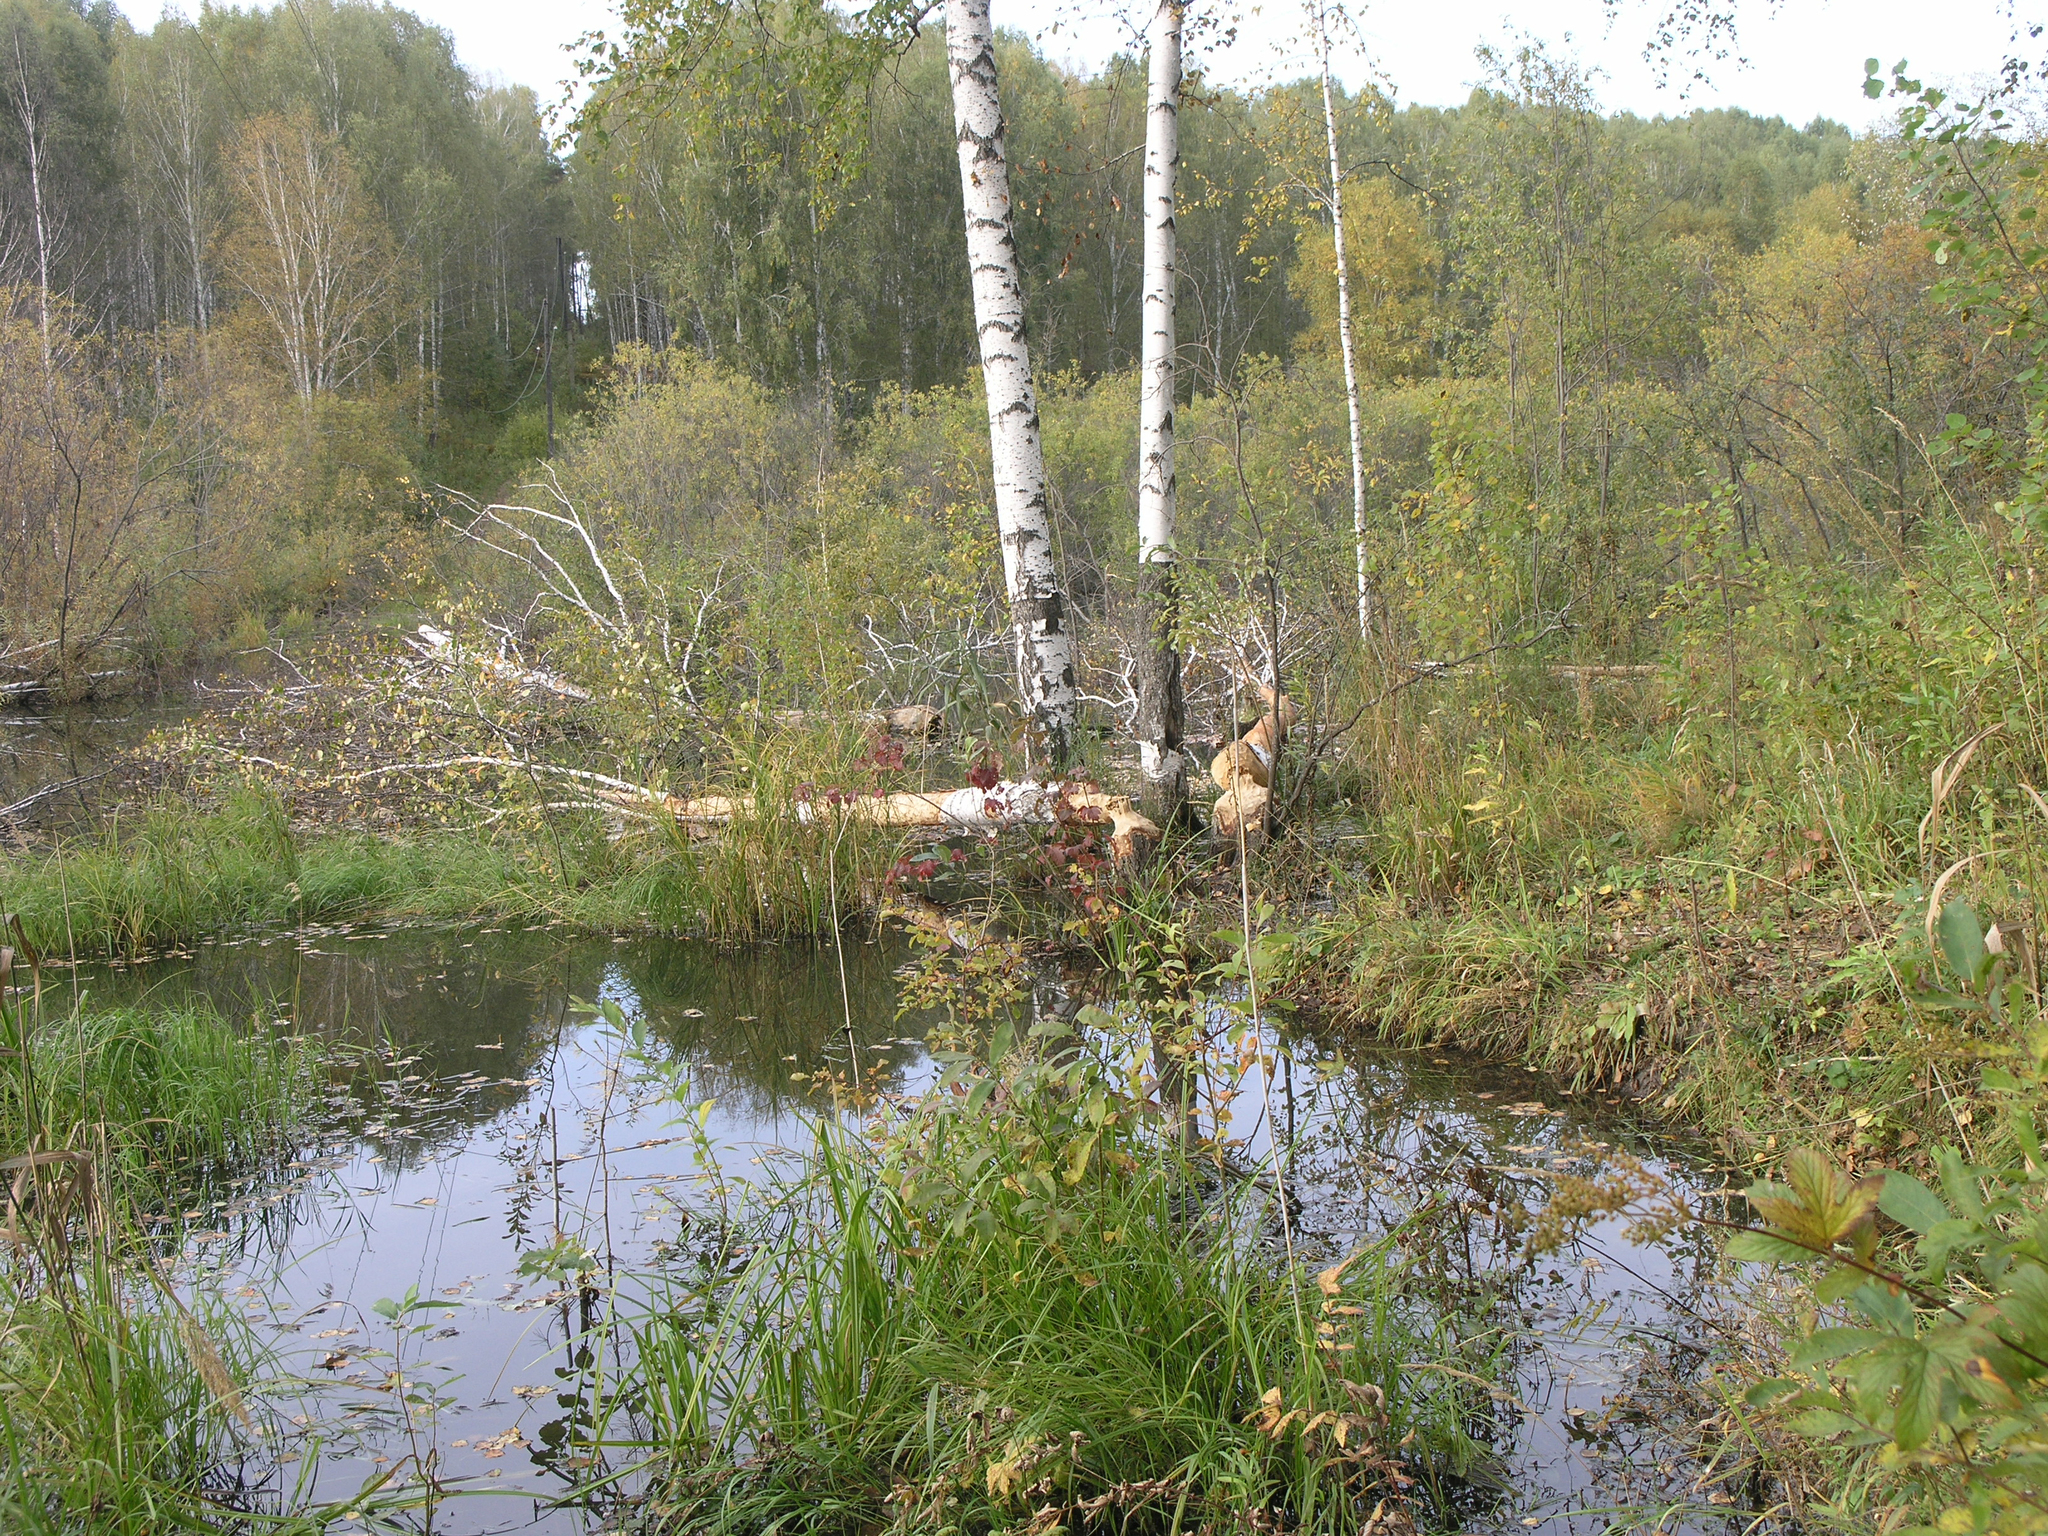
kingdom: Animalia
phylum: Chordata
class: Mammalia
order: Rodentia
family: Castoridae
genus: Castor
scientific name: Castor fiber
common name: Eurasian beaver
